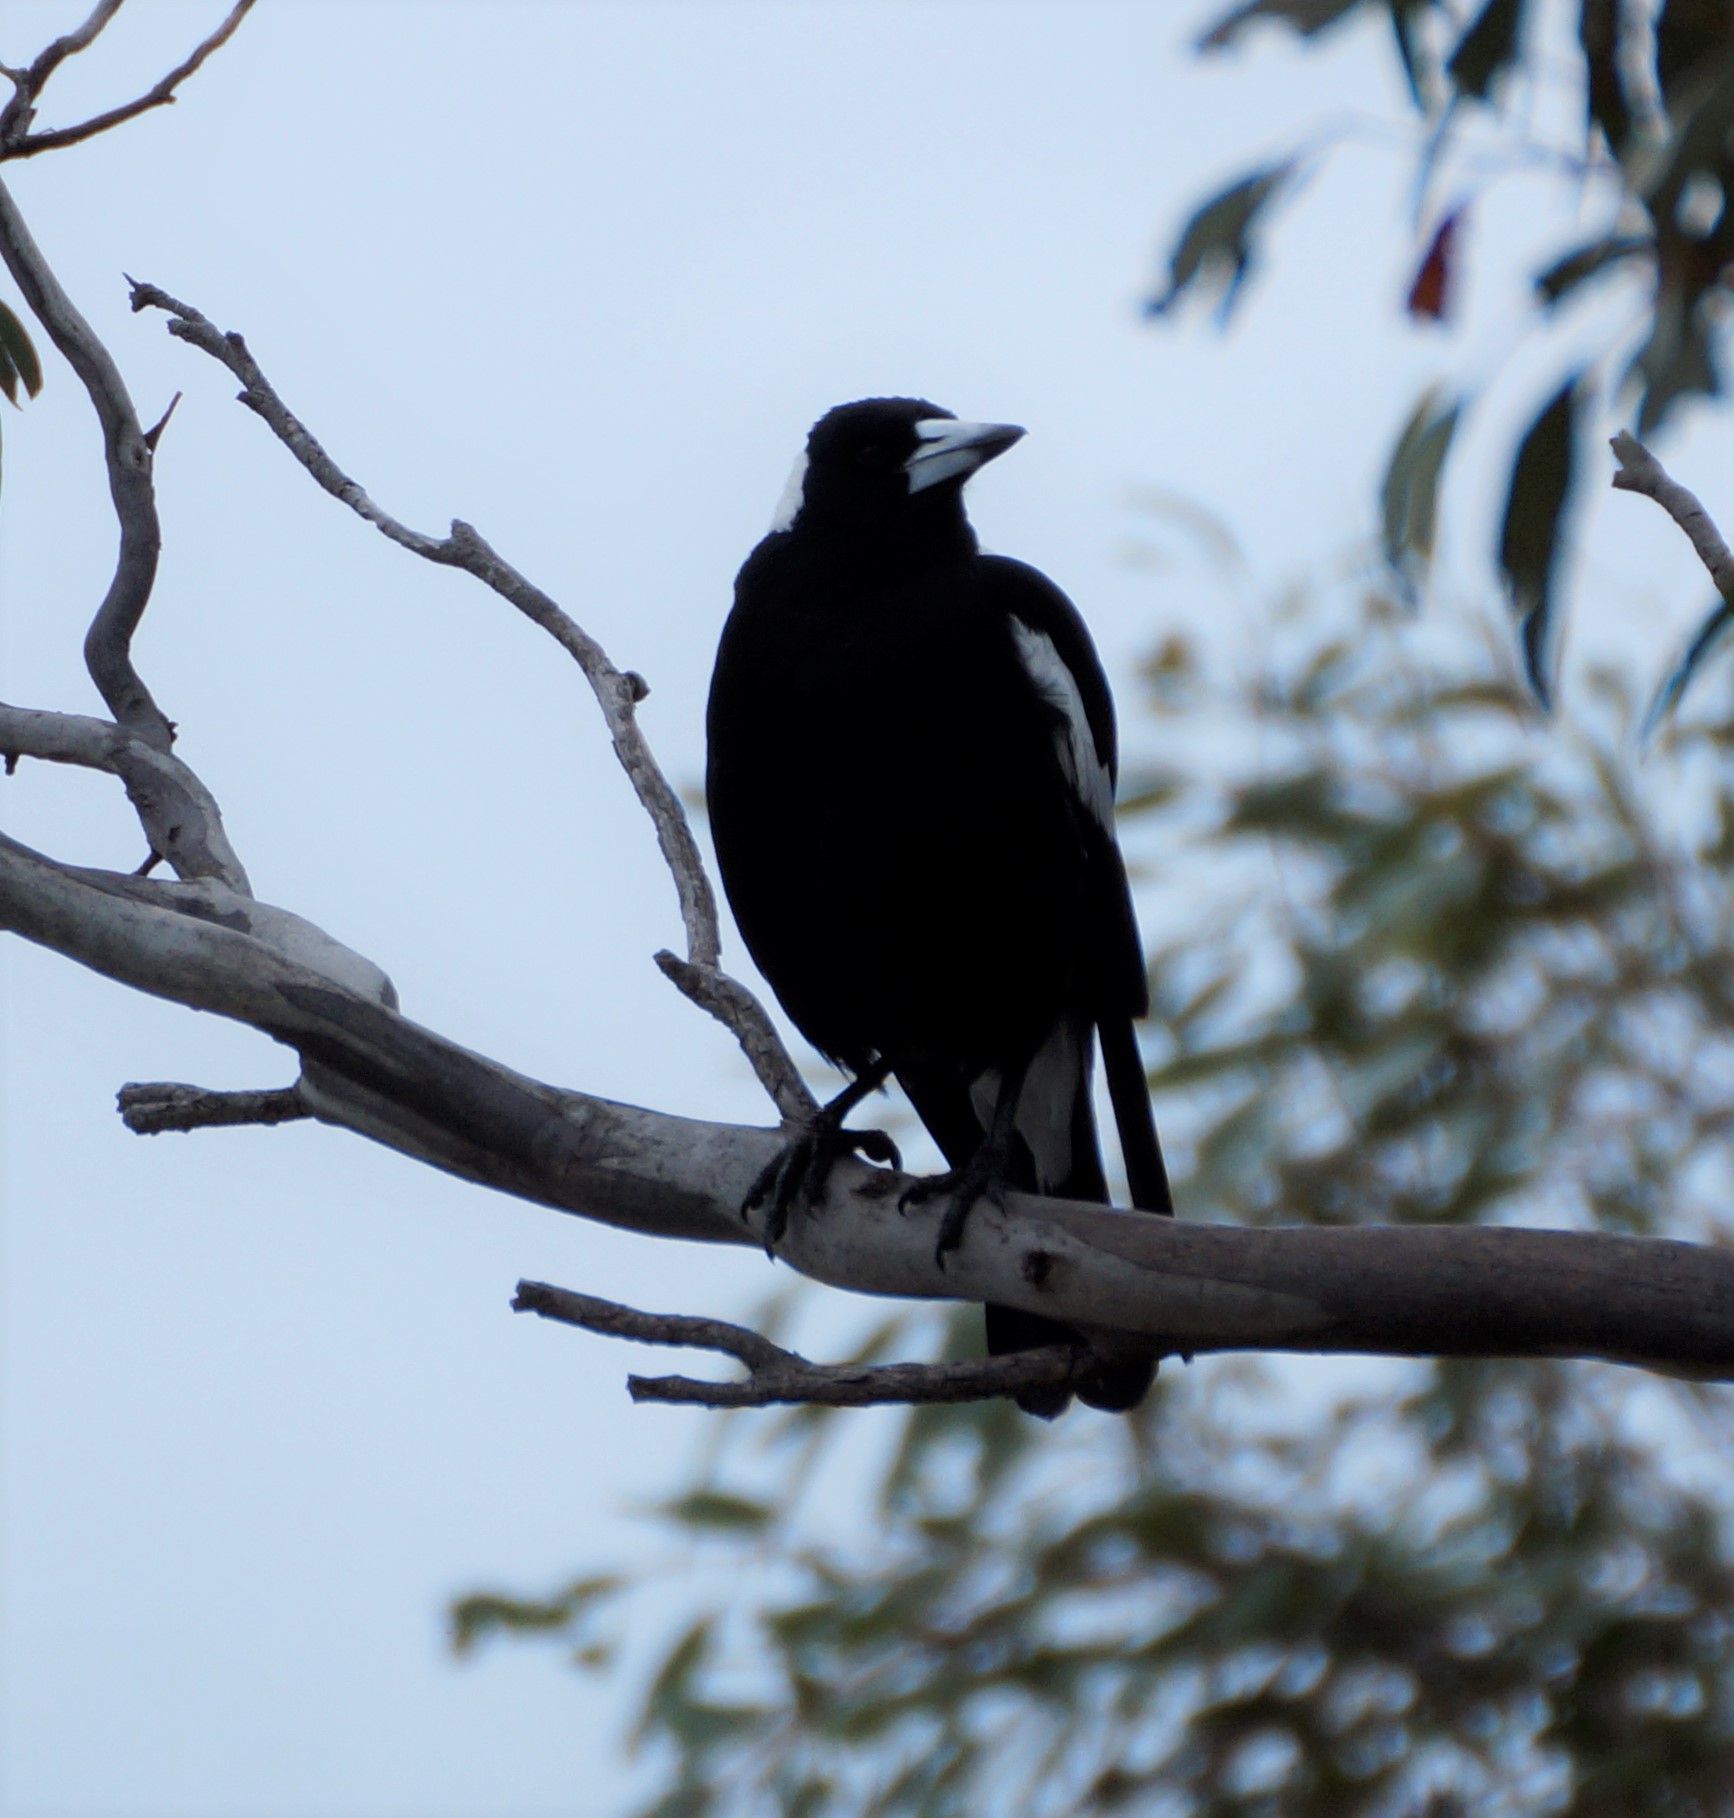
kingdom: Animalia
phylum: Chordata
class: Aves
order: Passeriformes
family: Cracticidae
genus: Gymnorhina
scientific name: Gymnorhina tibicen
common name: Australian magpie
